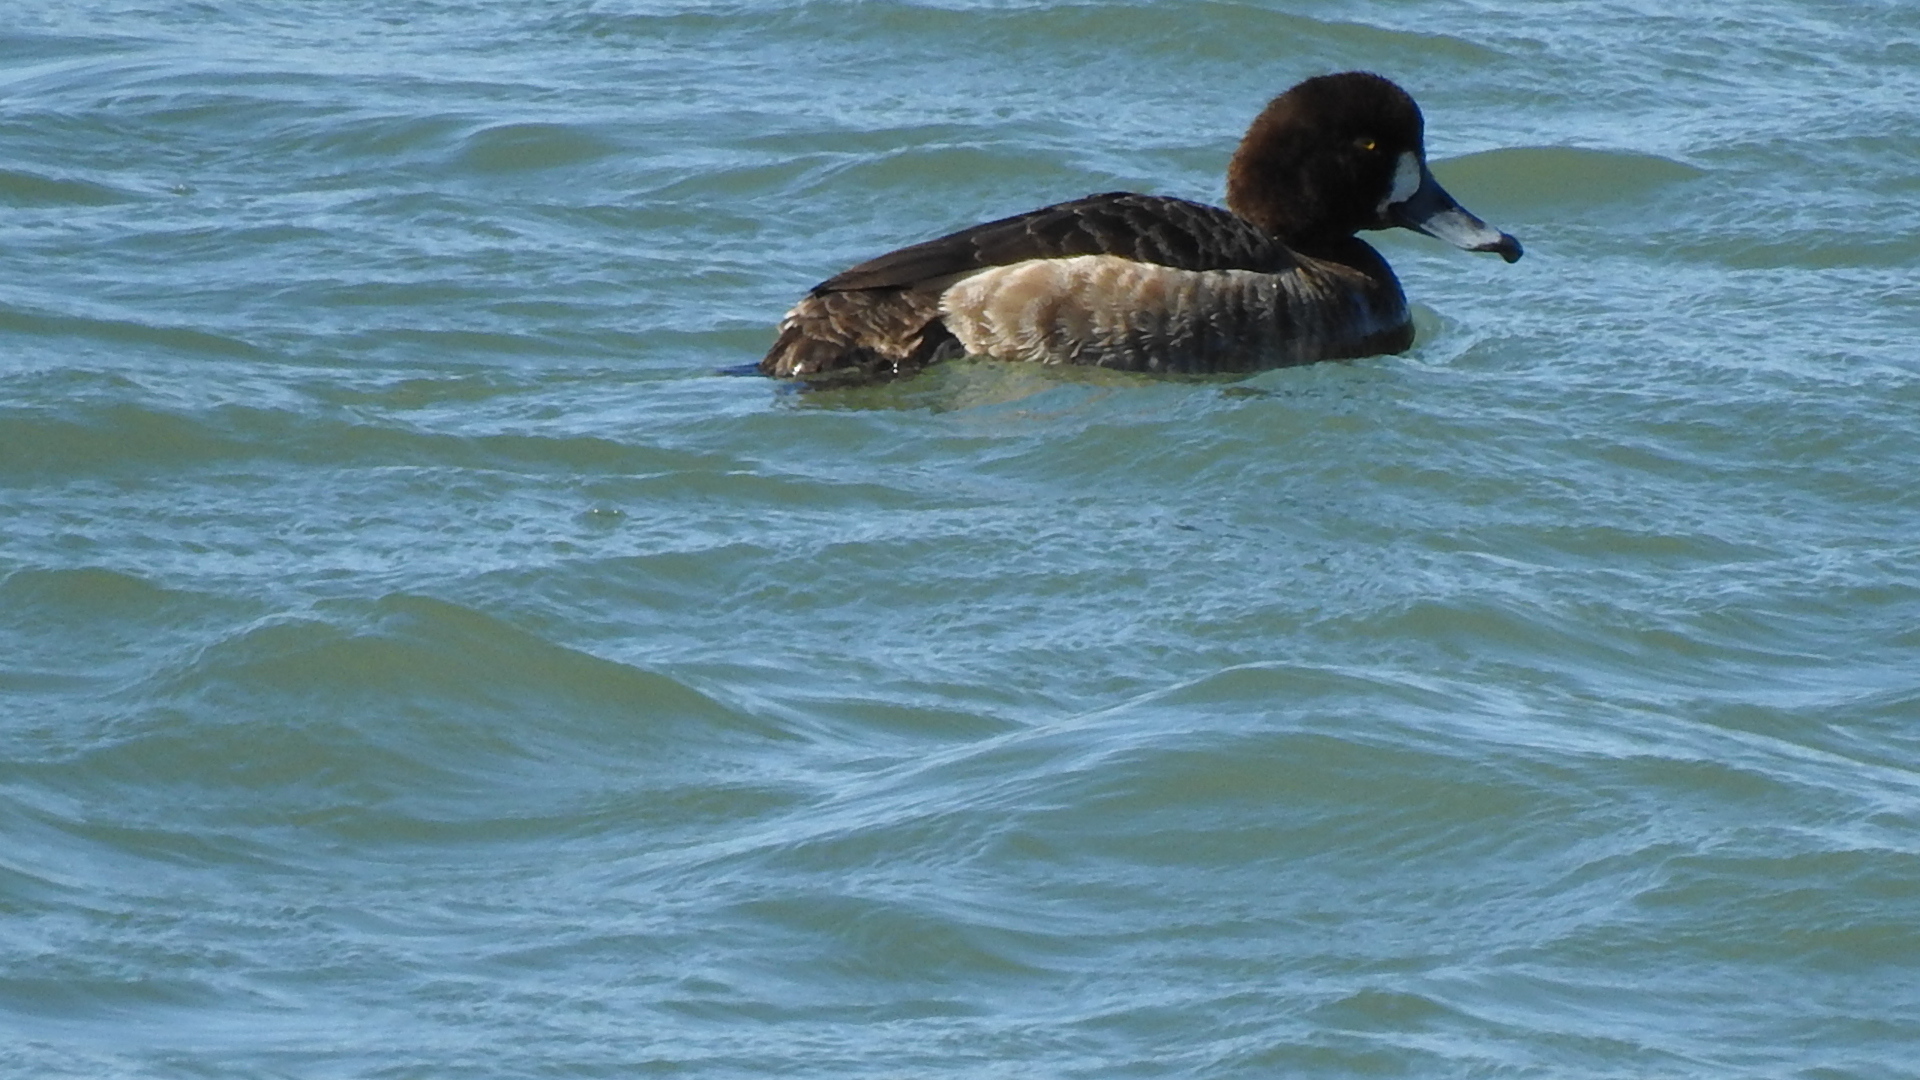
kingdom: Animalia
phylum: Chordata
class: Aves
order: Anseriformes
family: Anatidae
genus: Aythya
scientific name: Aythya marila
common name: Greater scaup
